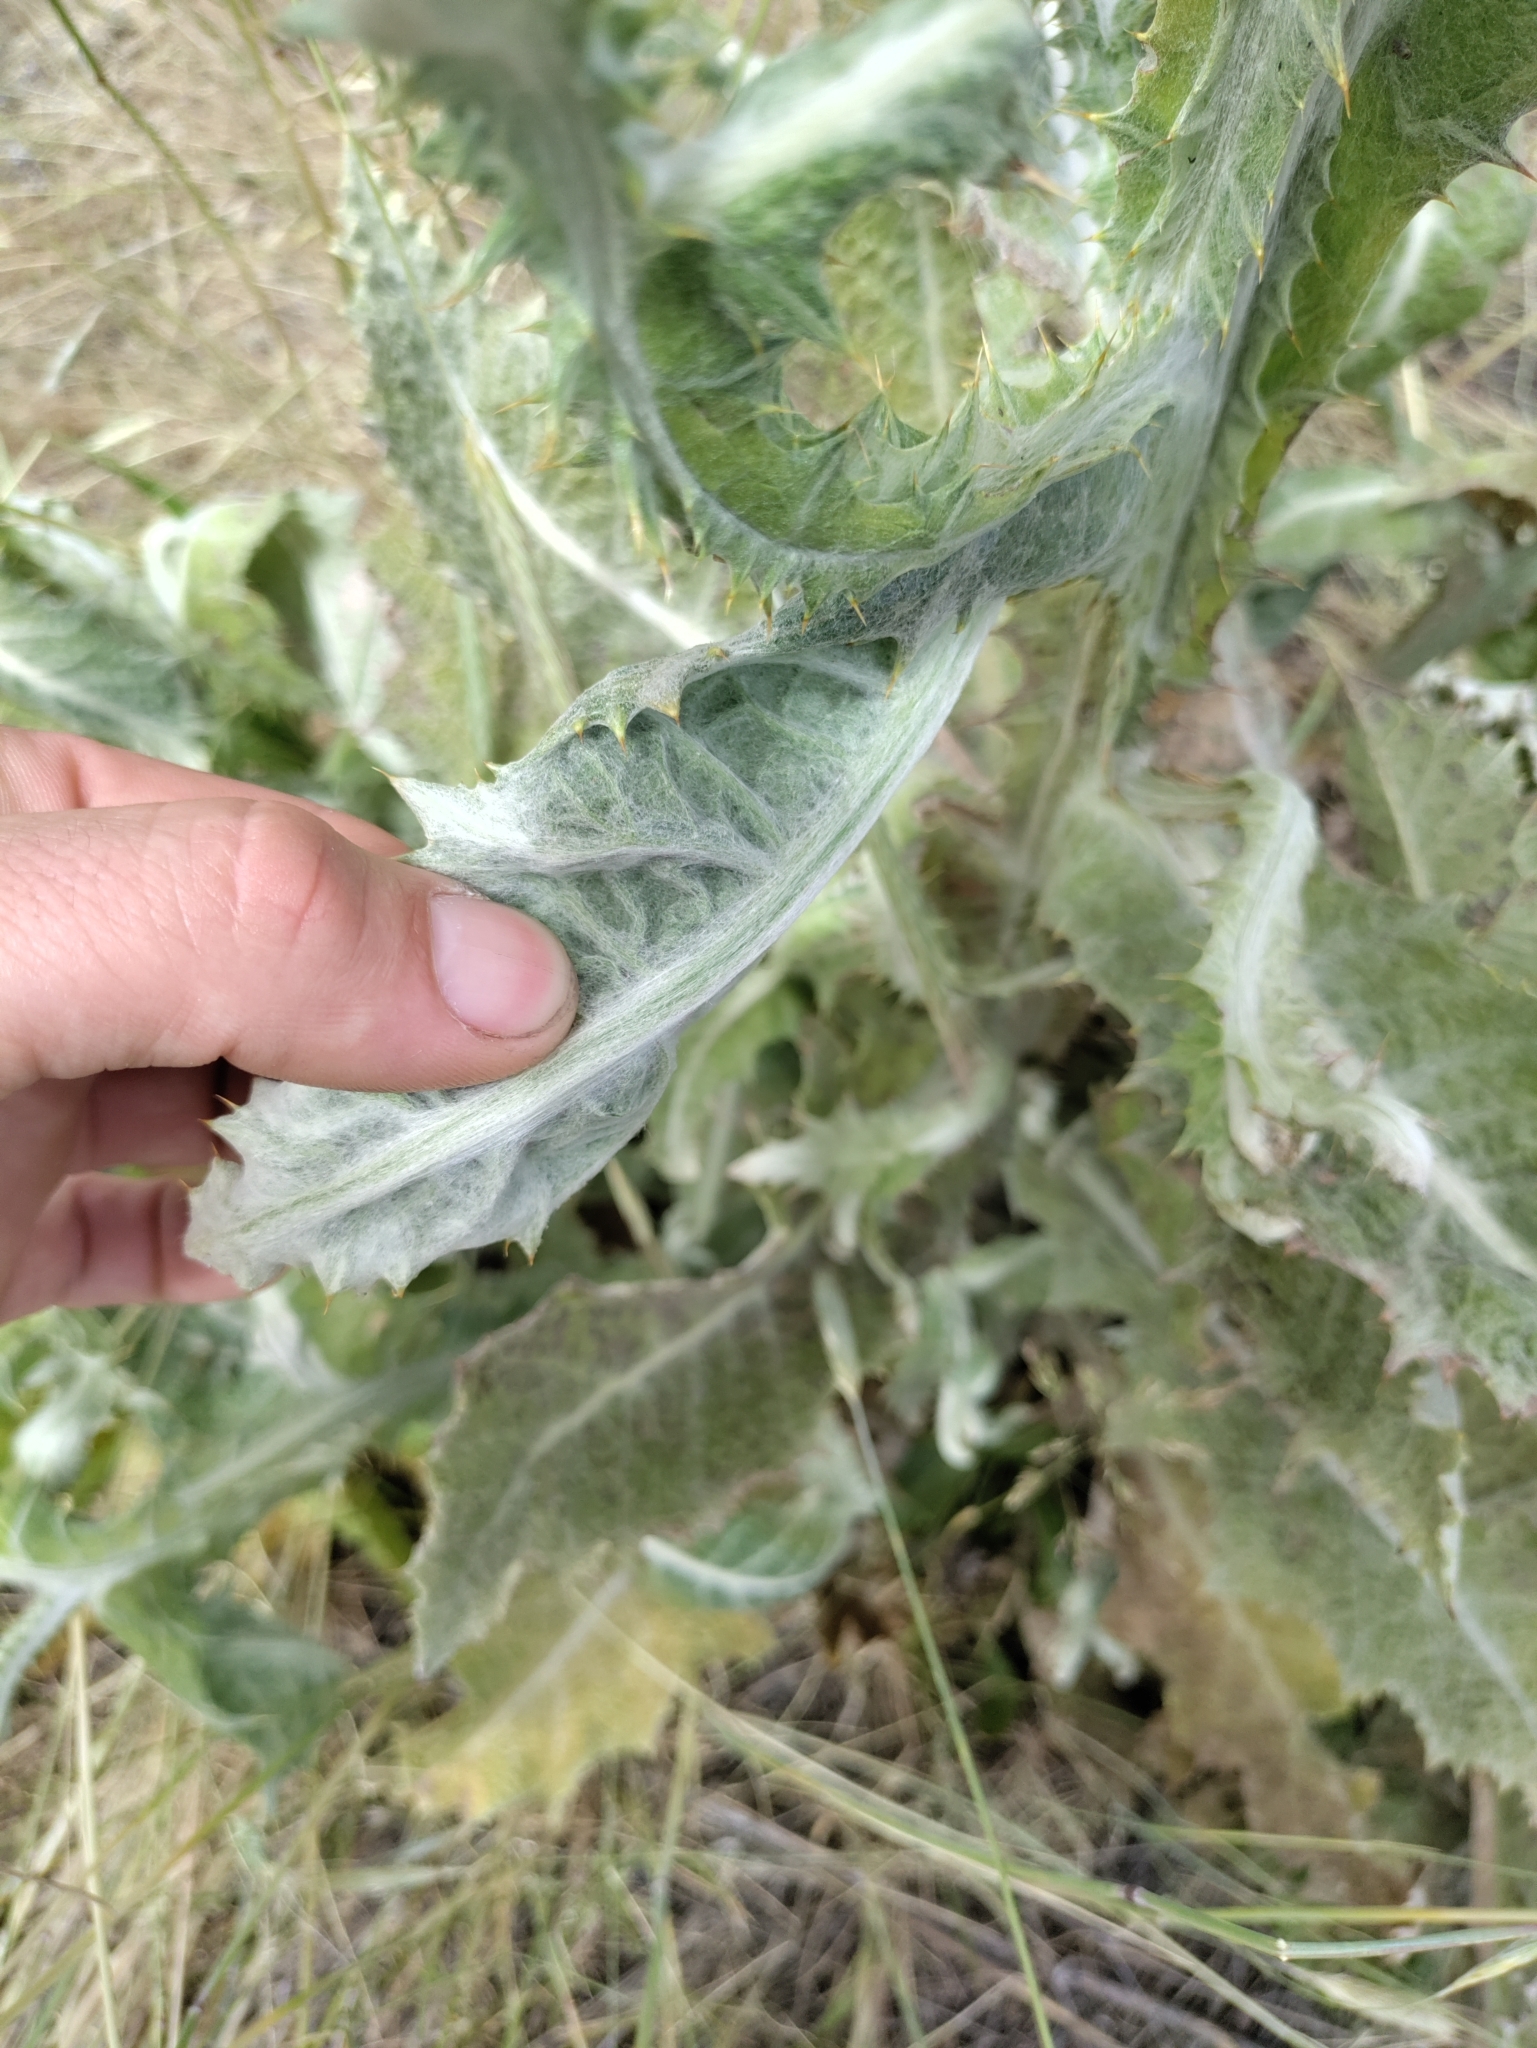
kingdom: Plantae
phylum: Tracheophyta
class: Magnoliopsida
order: Asterales
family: Asteraceae
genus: Onopordum
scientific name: Onopordum acanthium
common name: Scotch thistle
